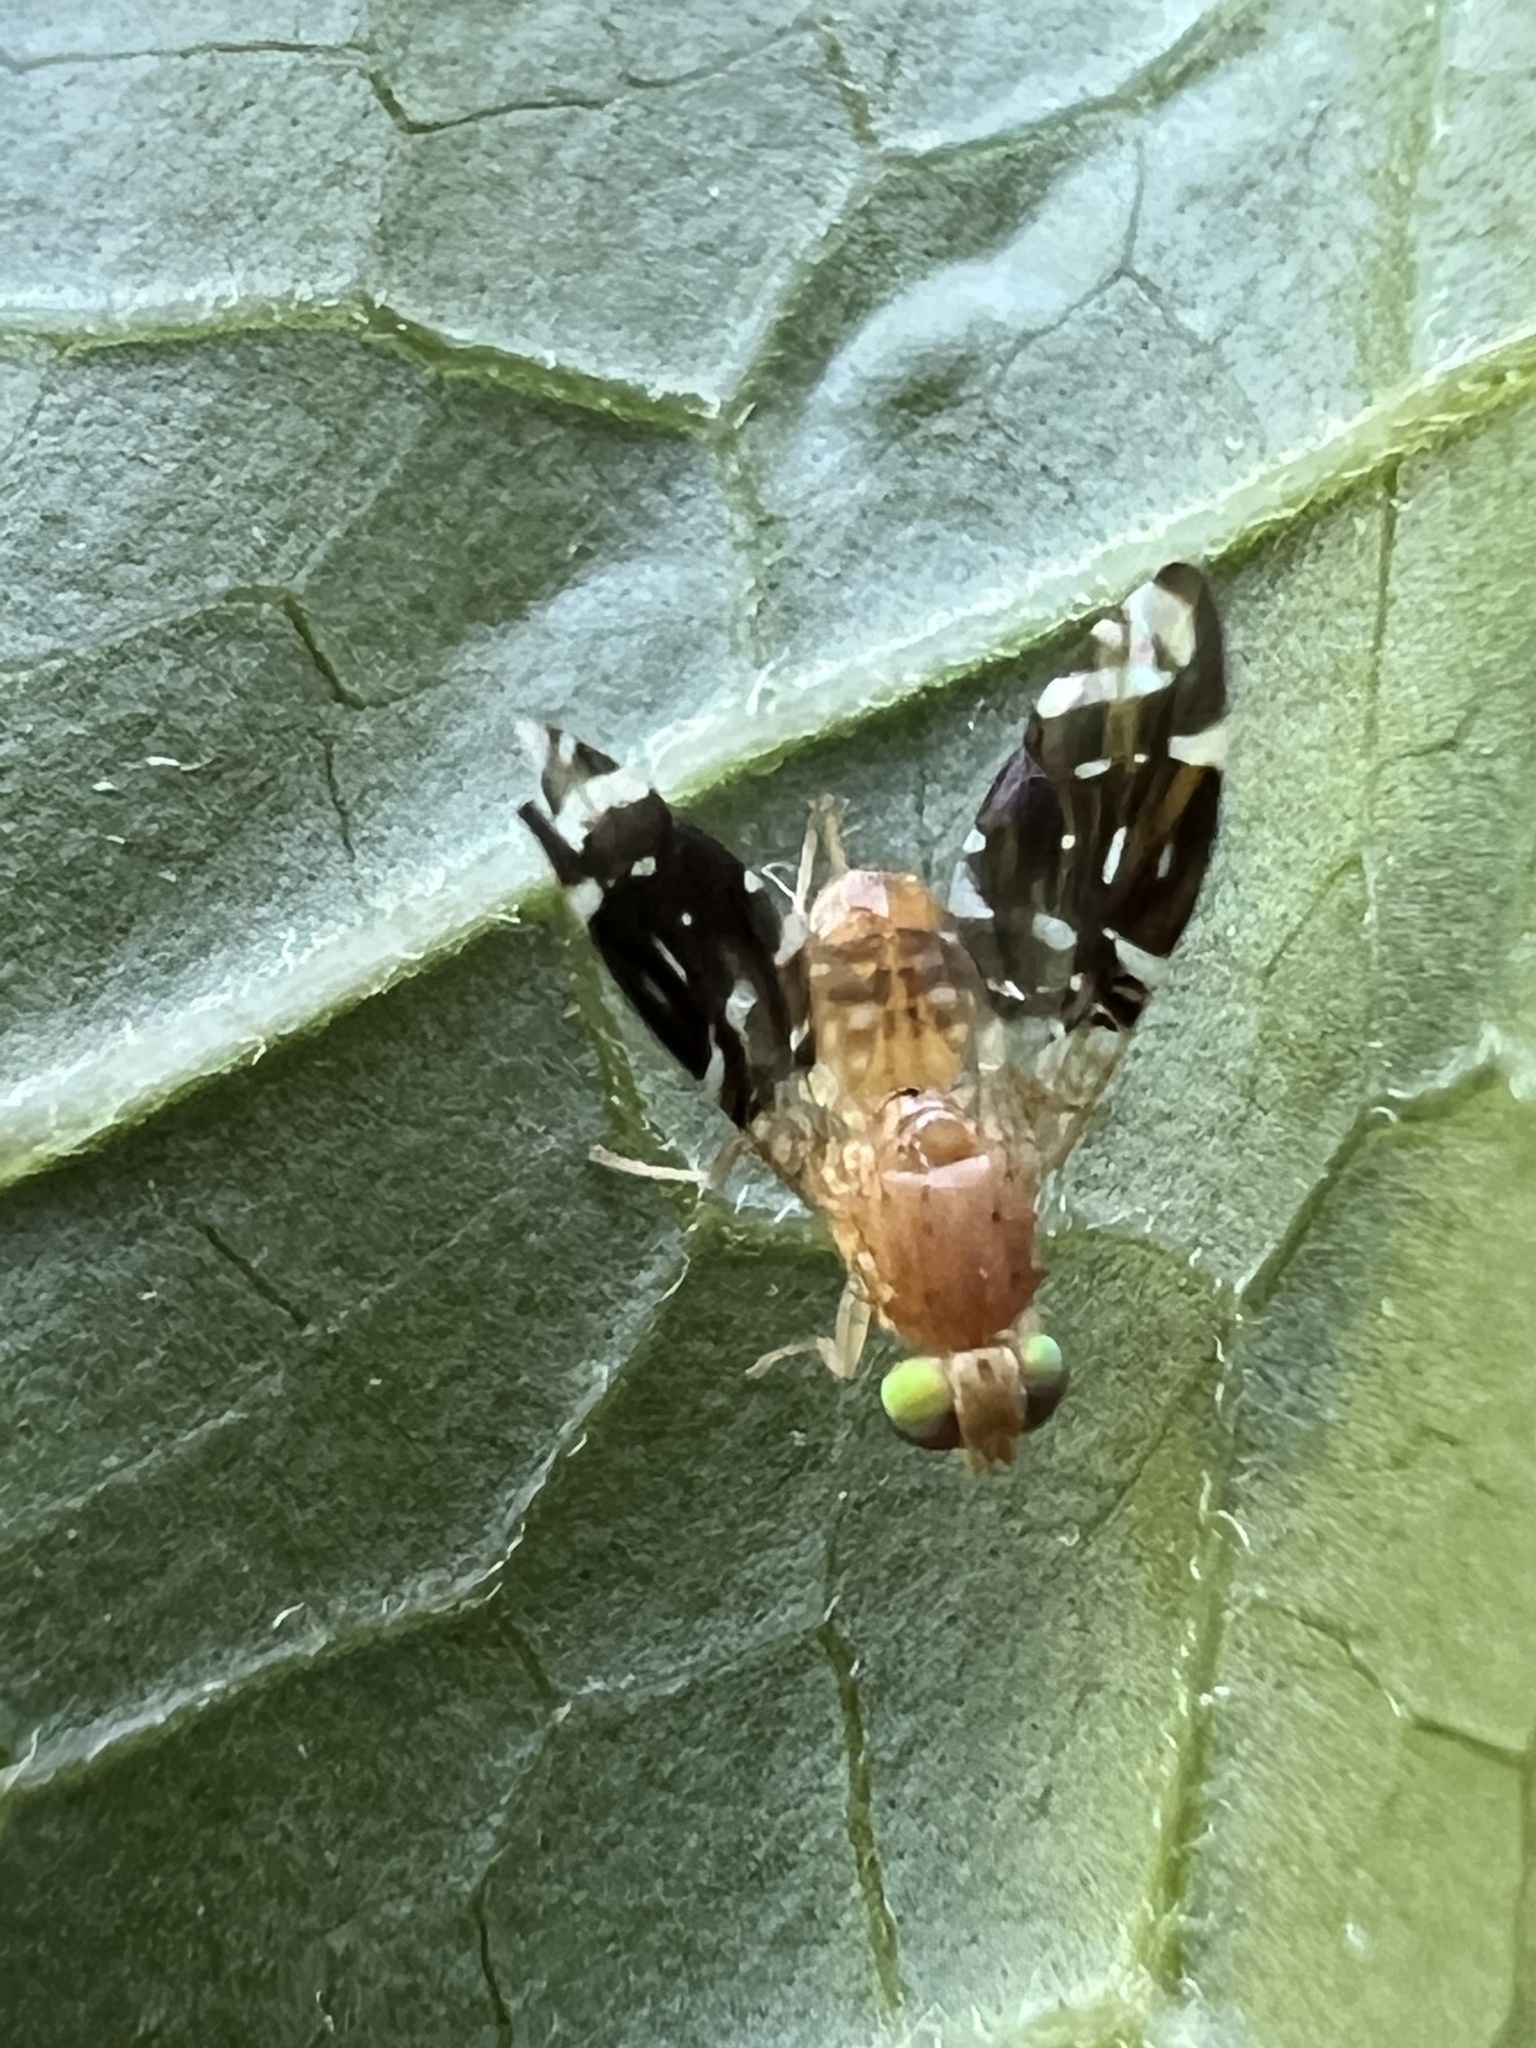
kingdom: Animalia
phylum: Arthropoda
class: Insecta
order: Diptera
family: Tephritidae
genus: Neotaracia
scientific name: Neotaracia imox
